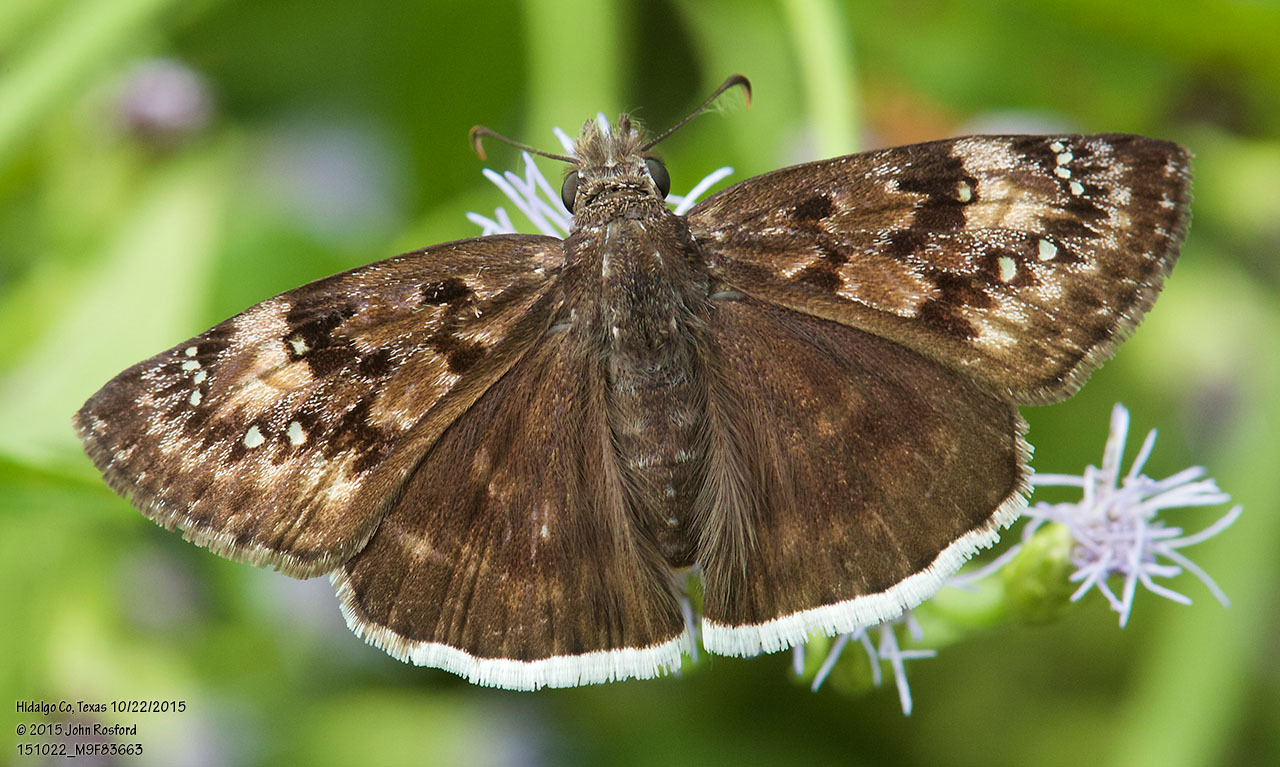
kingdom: Animalia
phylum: Arthropoda
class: Insecta
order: Lepidoptera
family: Hesperiidae
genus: Erynnis
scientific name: Erynnis tristis
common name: Mournful duskywing
